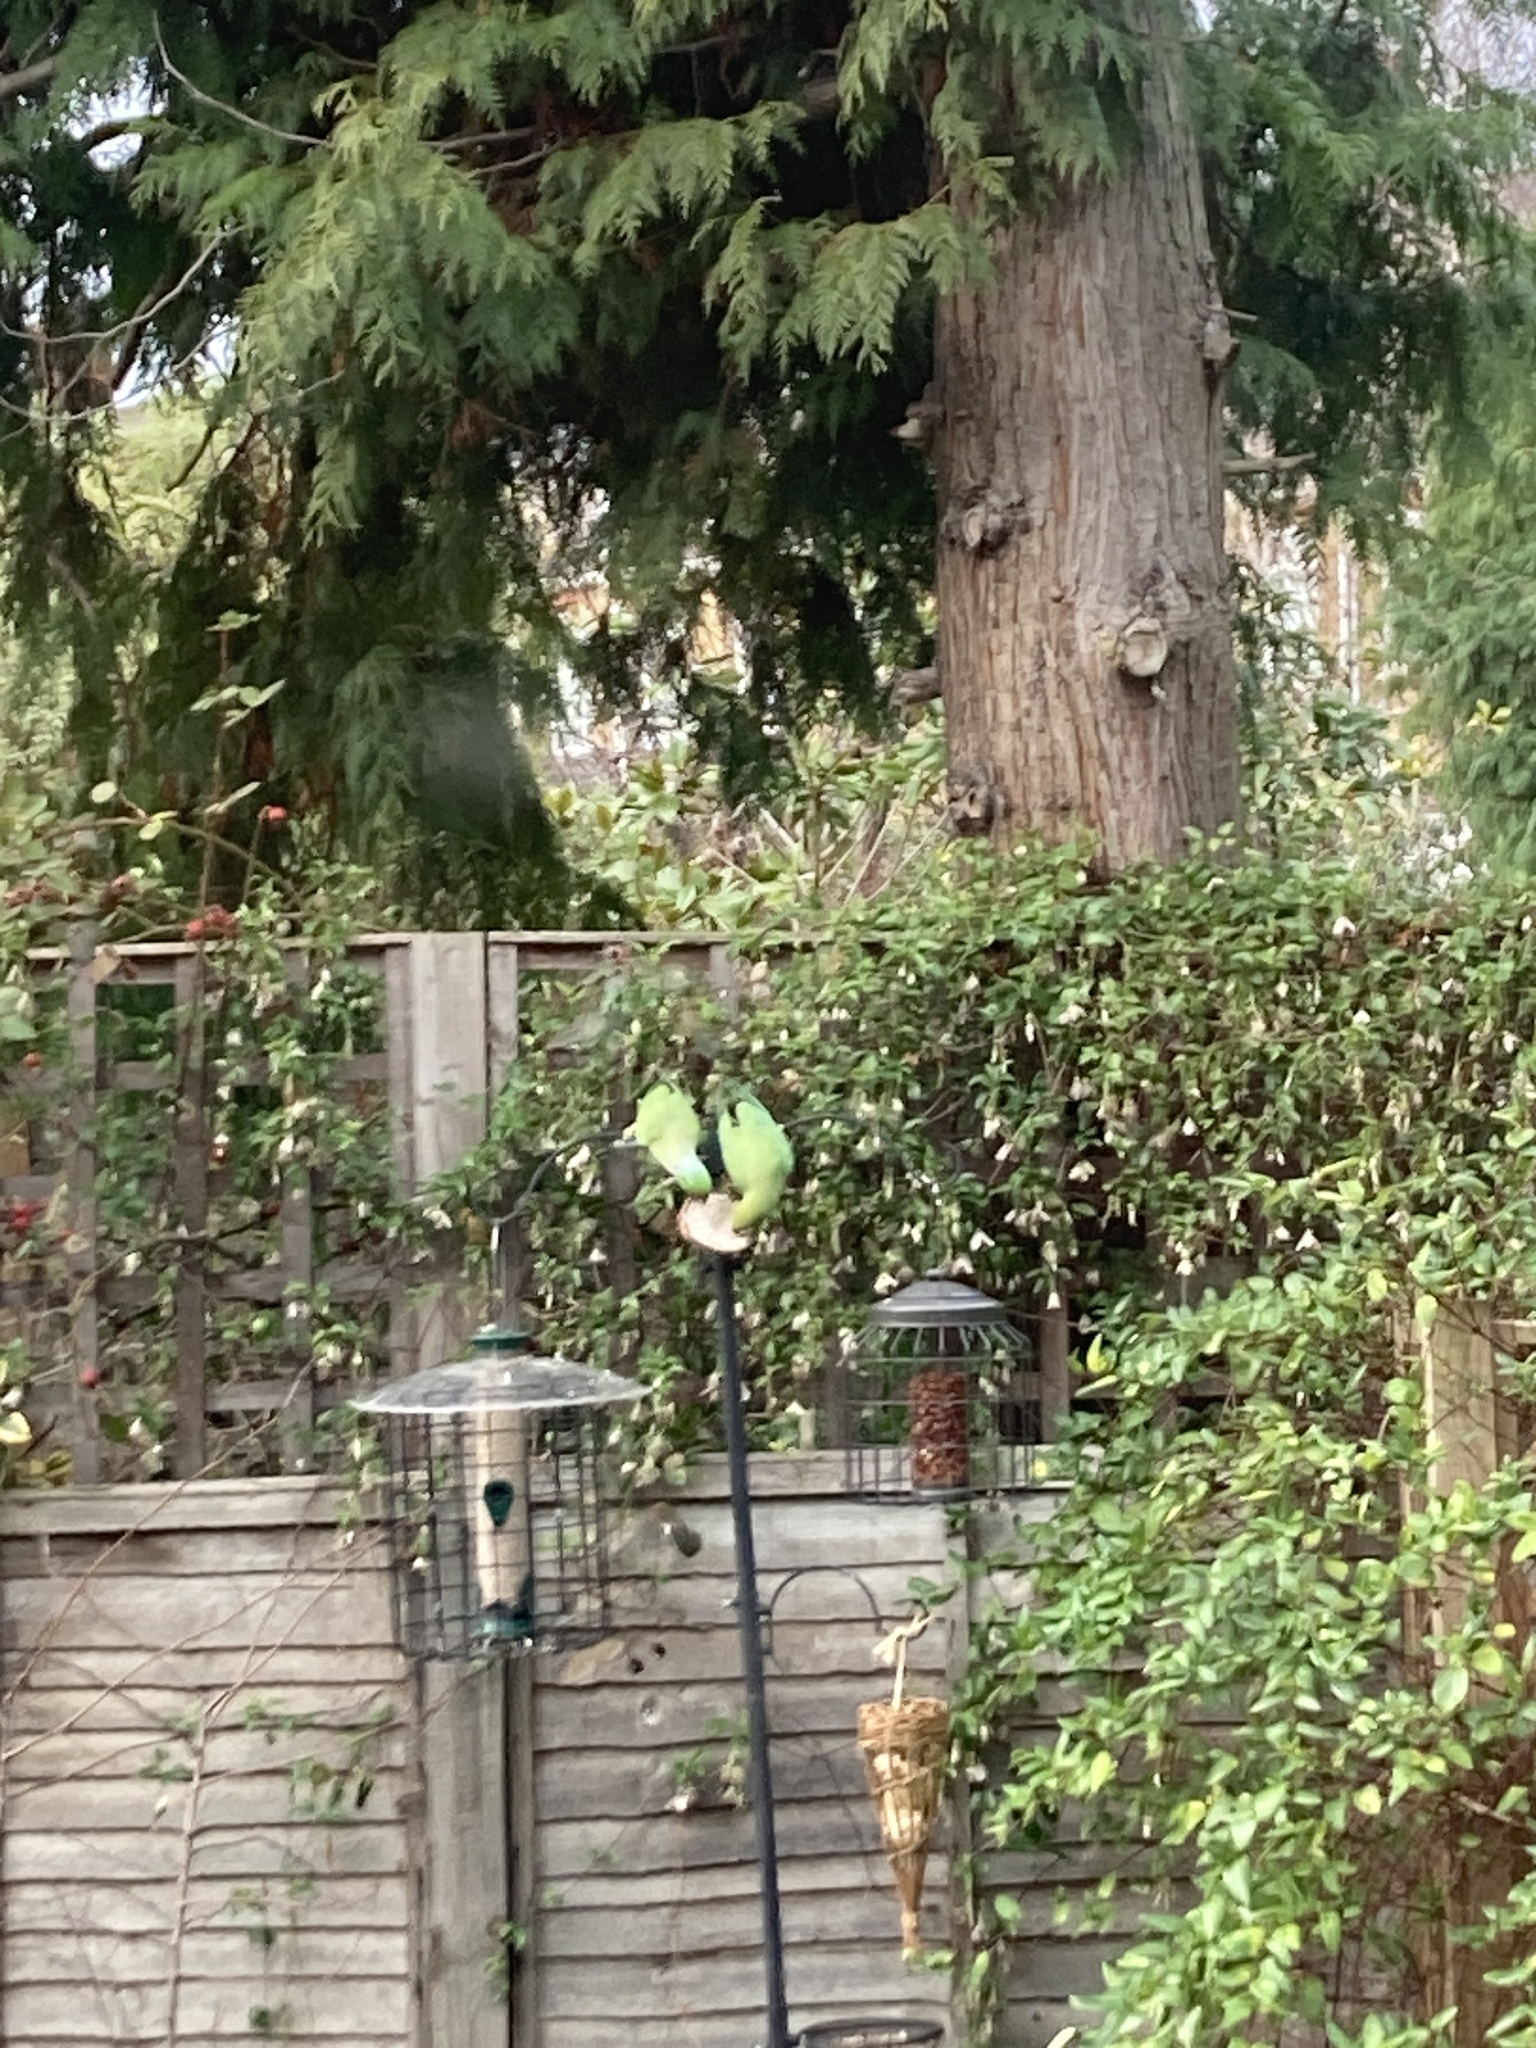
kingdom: Animalia
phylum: Chordata
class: Aves
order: Psittaciformes
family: Psittacidae
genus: Psittacula
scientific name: Psittacula krameri
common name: Rose-ringed parakeet
